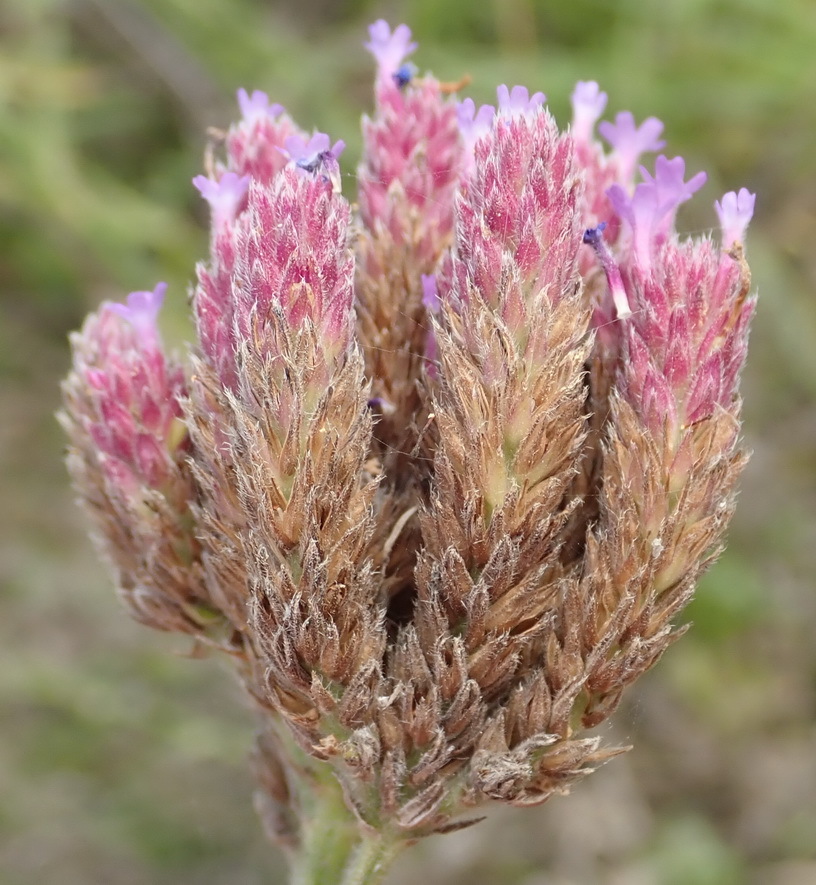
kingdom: Plantae
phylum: Tracheophyta
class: Magnoliopsida
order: Lamiales
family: Verbenaceae
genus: Verbena
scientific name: Verbena bonariensis
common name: Purpletop vervain
